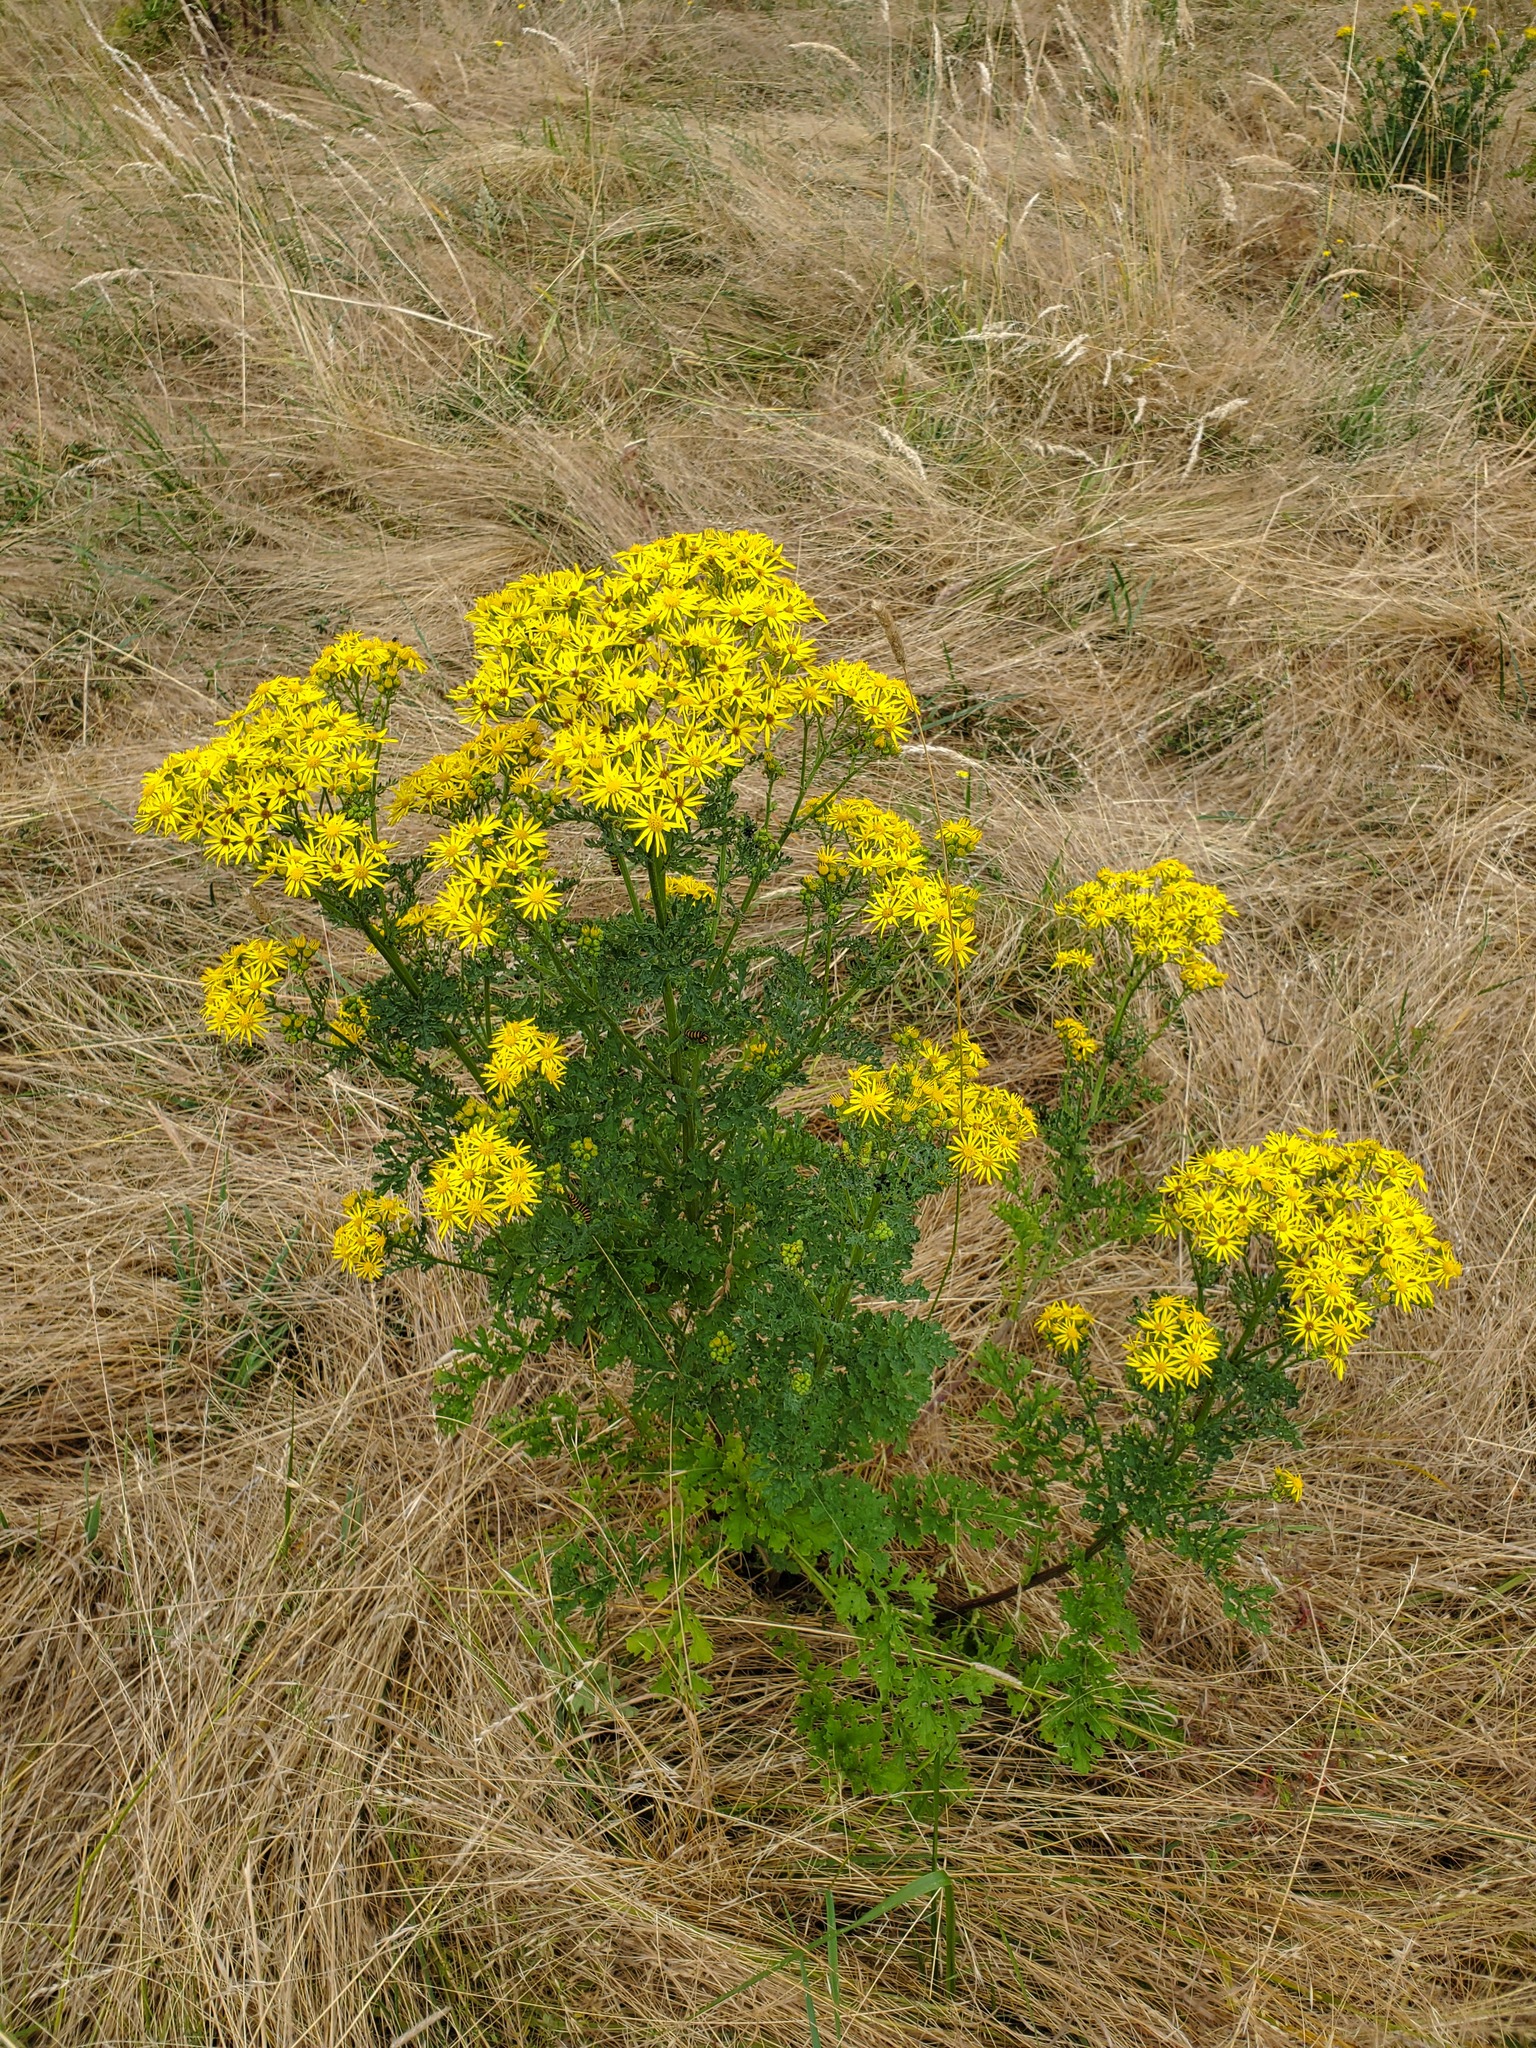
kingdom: Plantae
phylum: Tracheophyta
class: Magnoliopsida
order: Asterales
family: Asteraceae
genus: Jacobaea
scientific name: Jacobaea vulgaris
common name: Stinking willie
